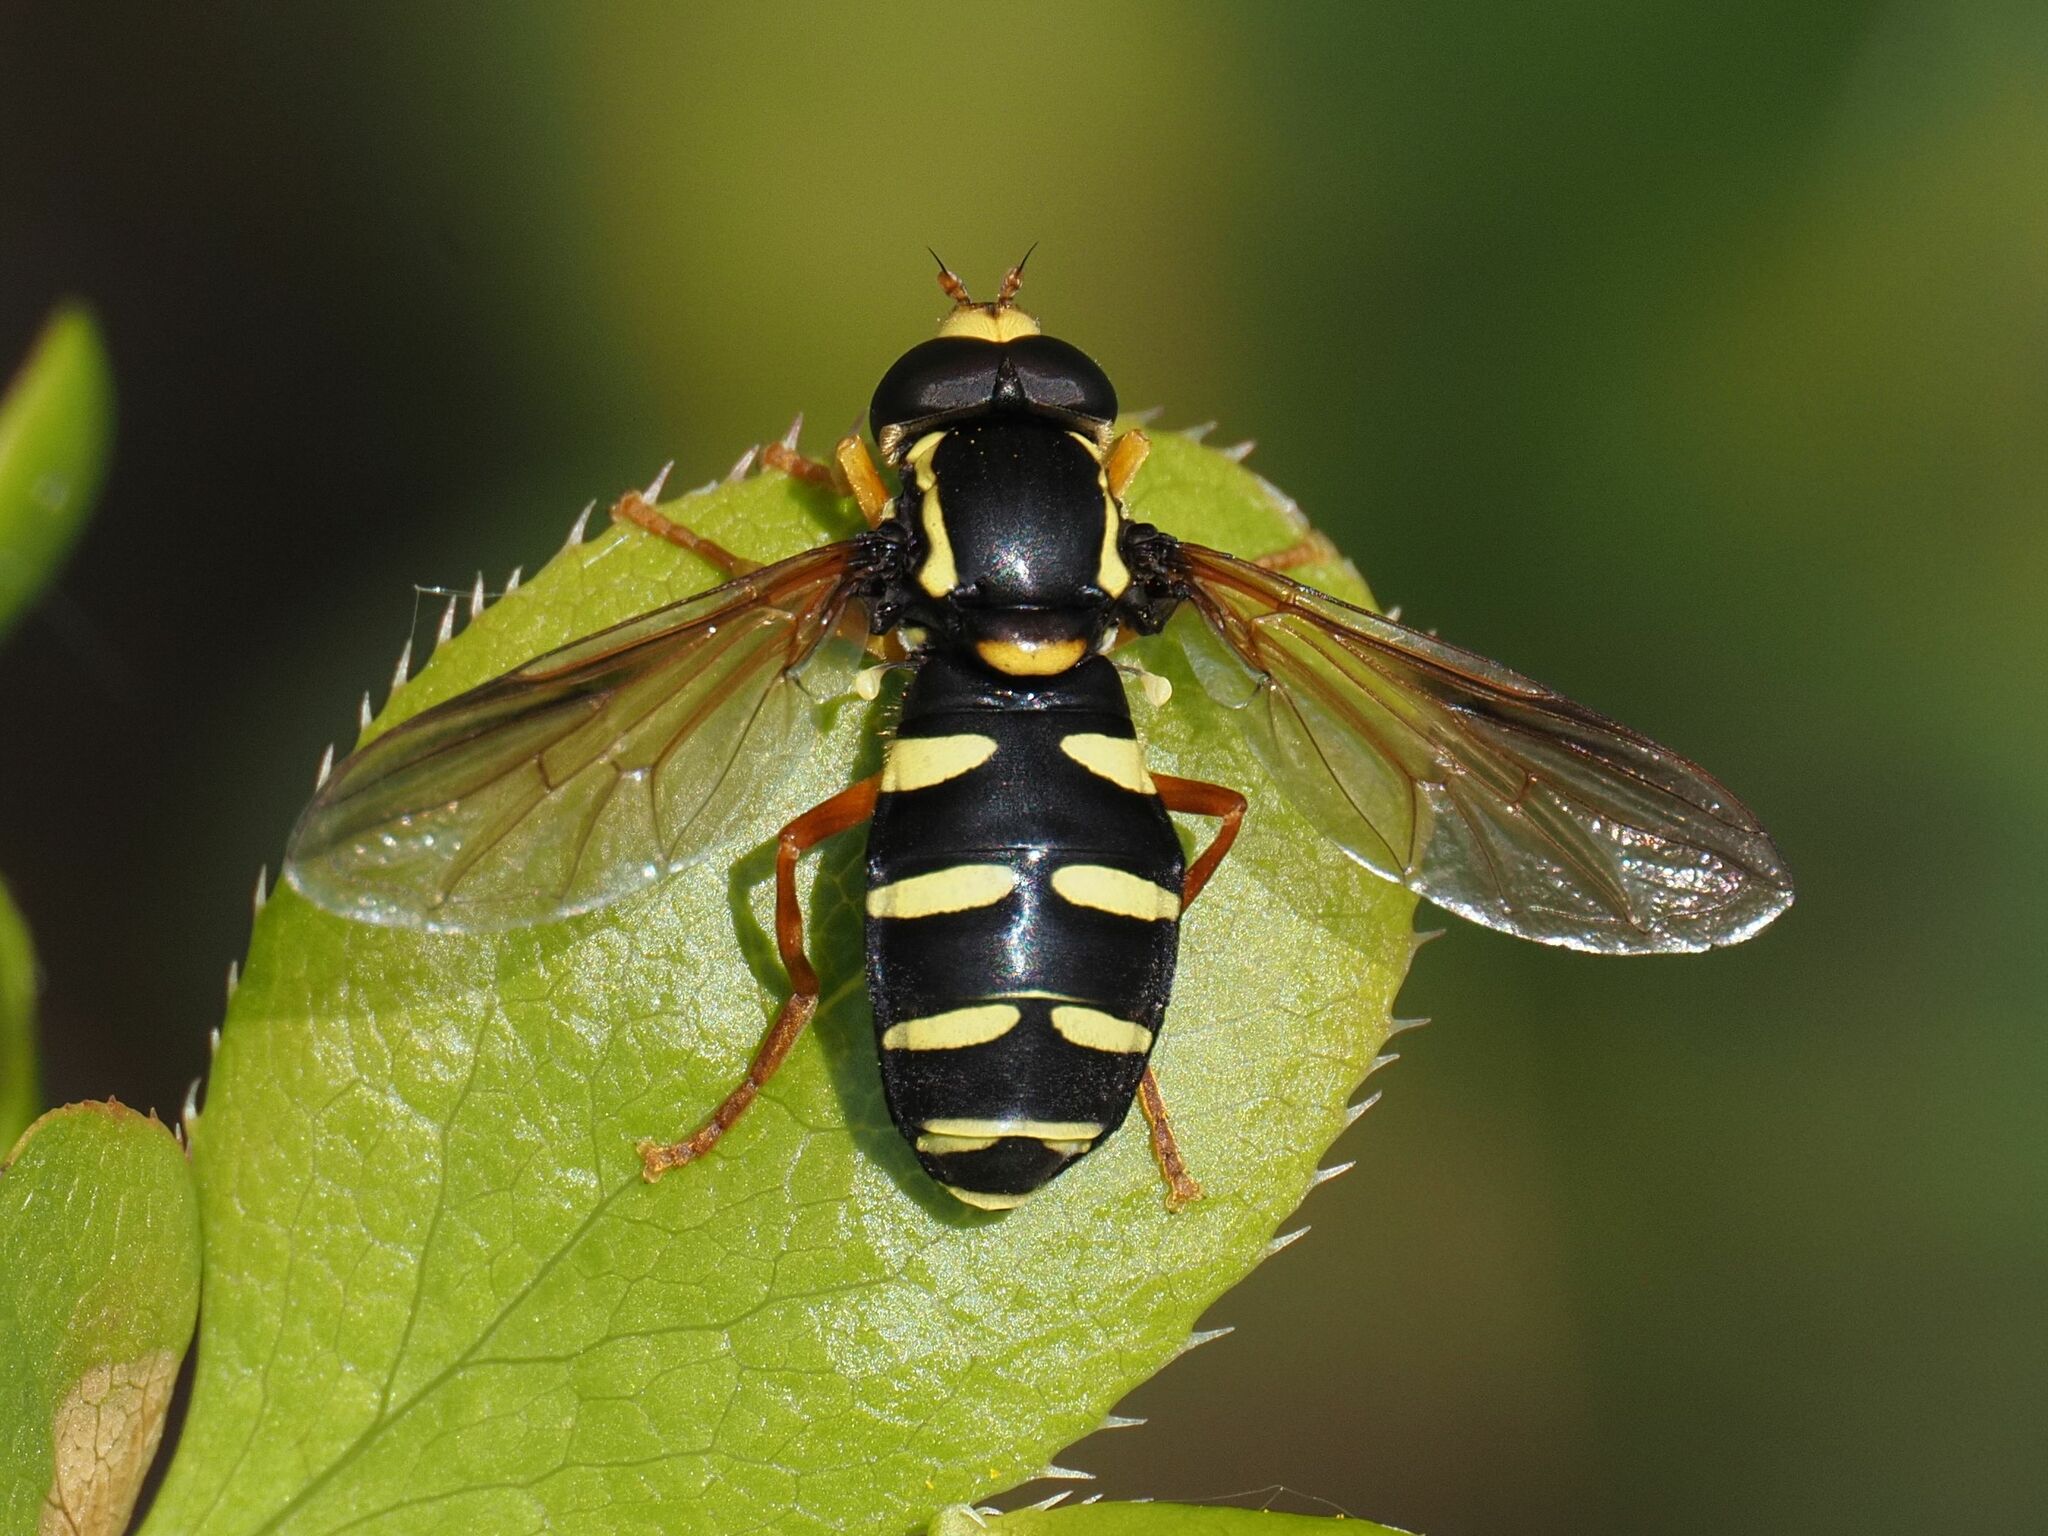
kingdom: Animalia
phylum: Arthropoda
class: Insecta
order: Diptera
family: Syrphidae
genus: Philhelius
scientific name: Philhelius citrofasciata
